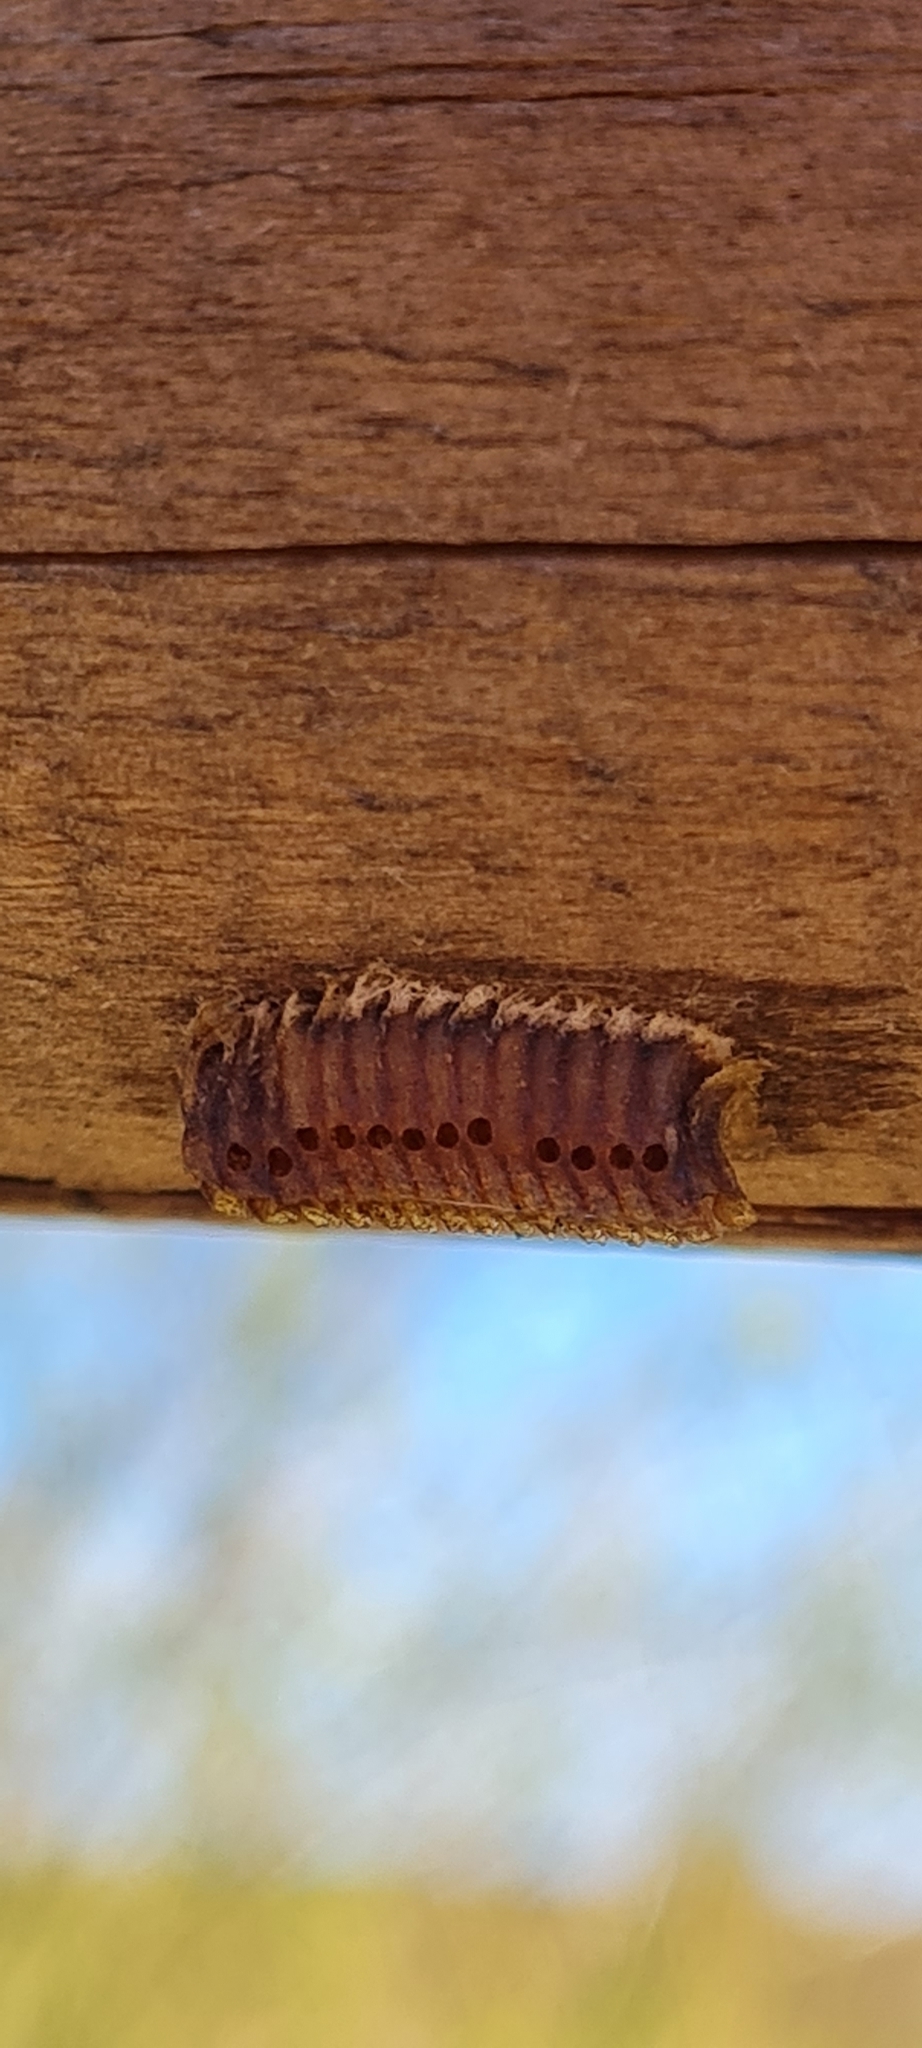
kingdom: Animalia
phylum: Arthropoda
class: Insecta
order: Mantodea
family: Eremiaphilidae
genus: Iris
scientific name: Iris oratoria
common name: Mediterranean mantis
